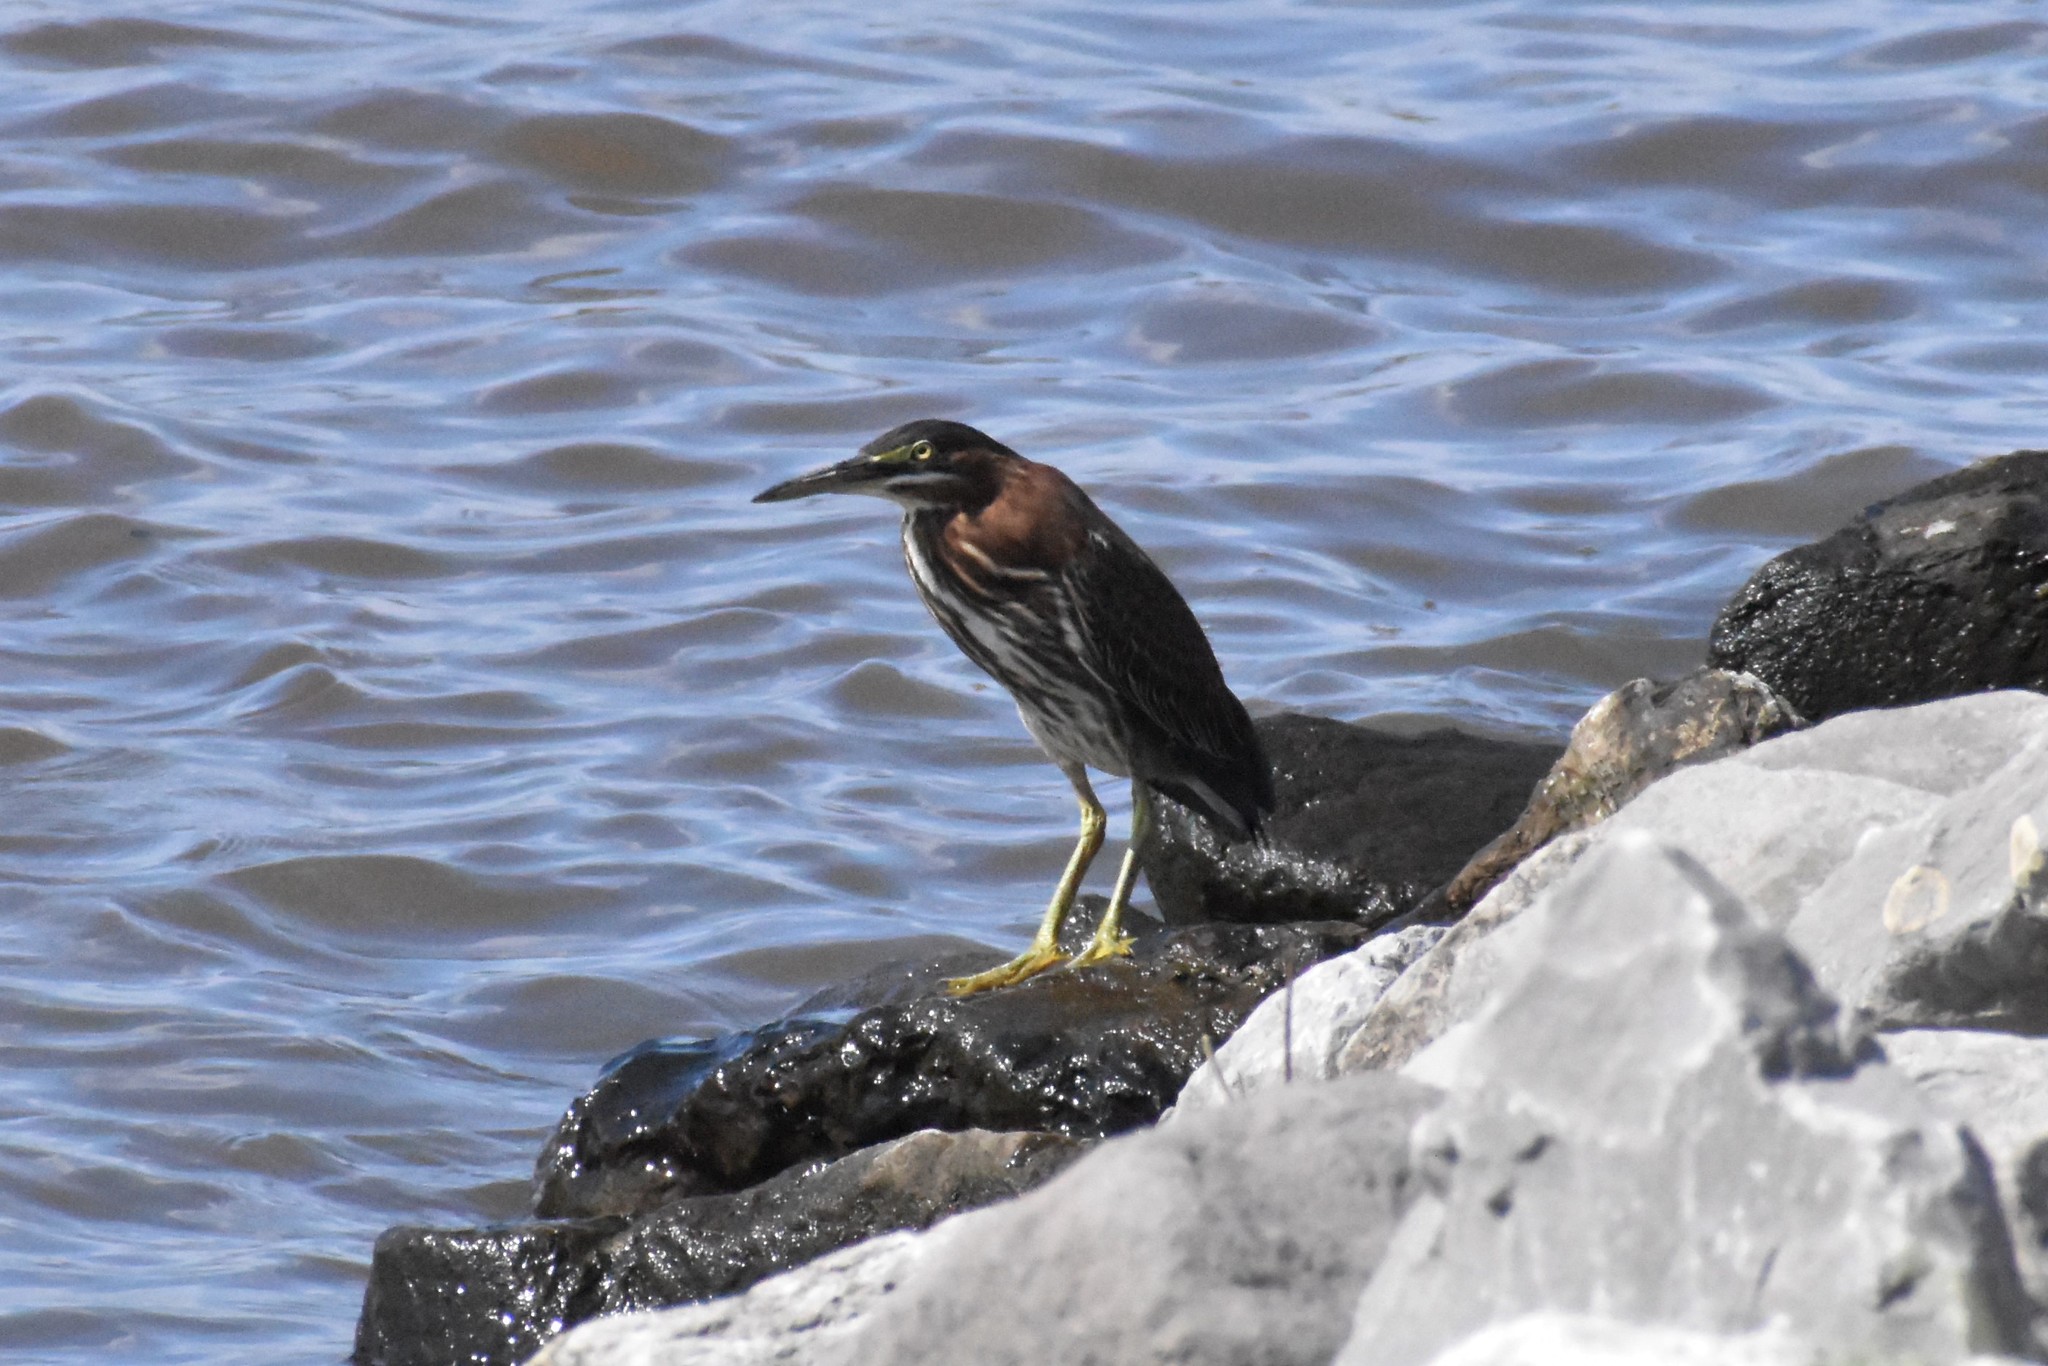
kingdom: Animalia
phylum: Chordata
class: Aves
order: Pelecaniformes
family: Ardeidae
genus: Butorides
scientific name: Butorides virescens
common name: Green heron
